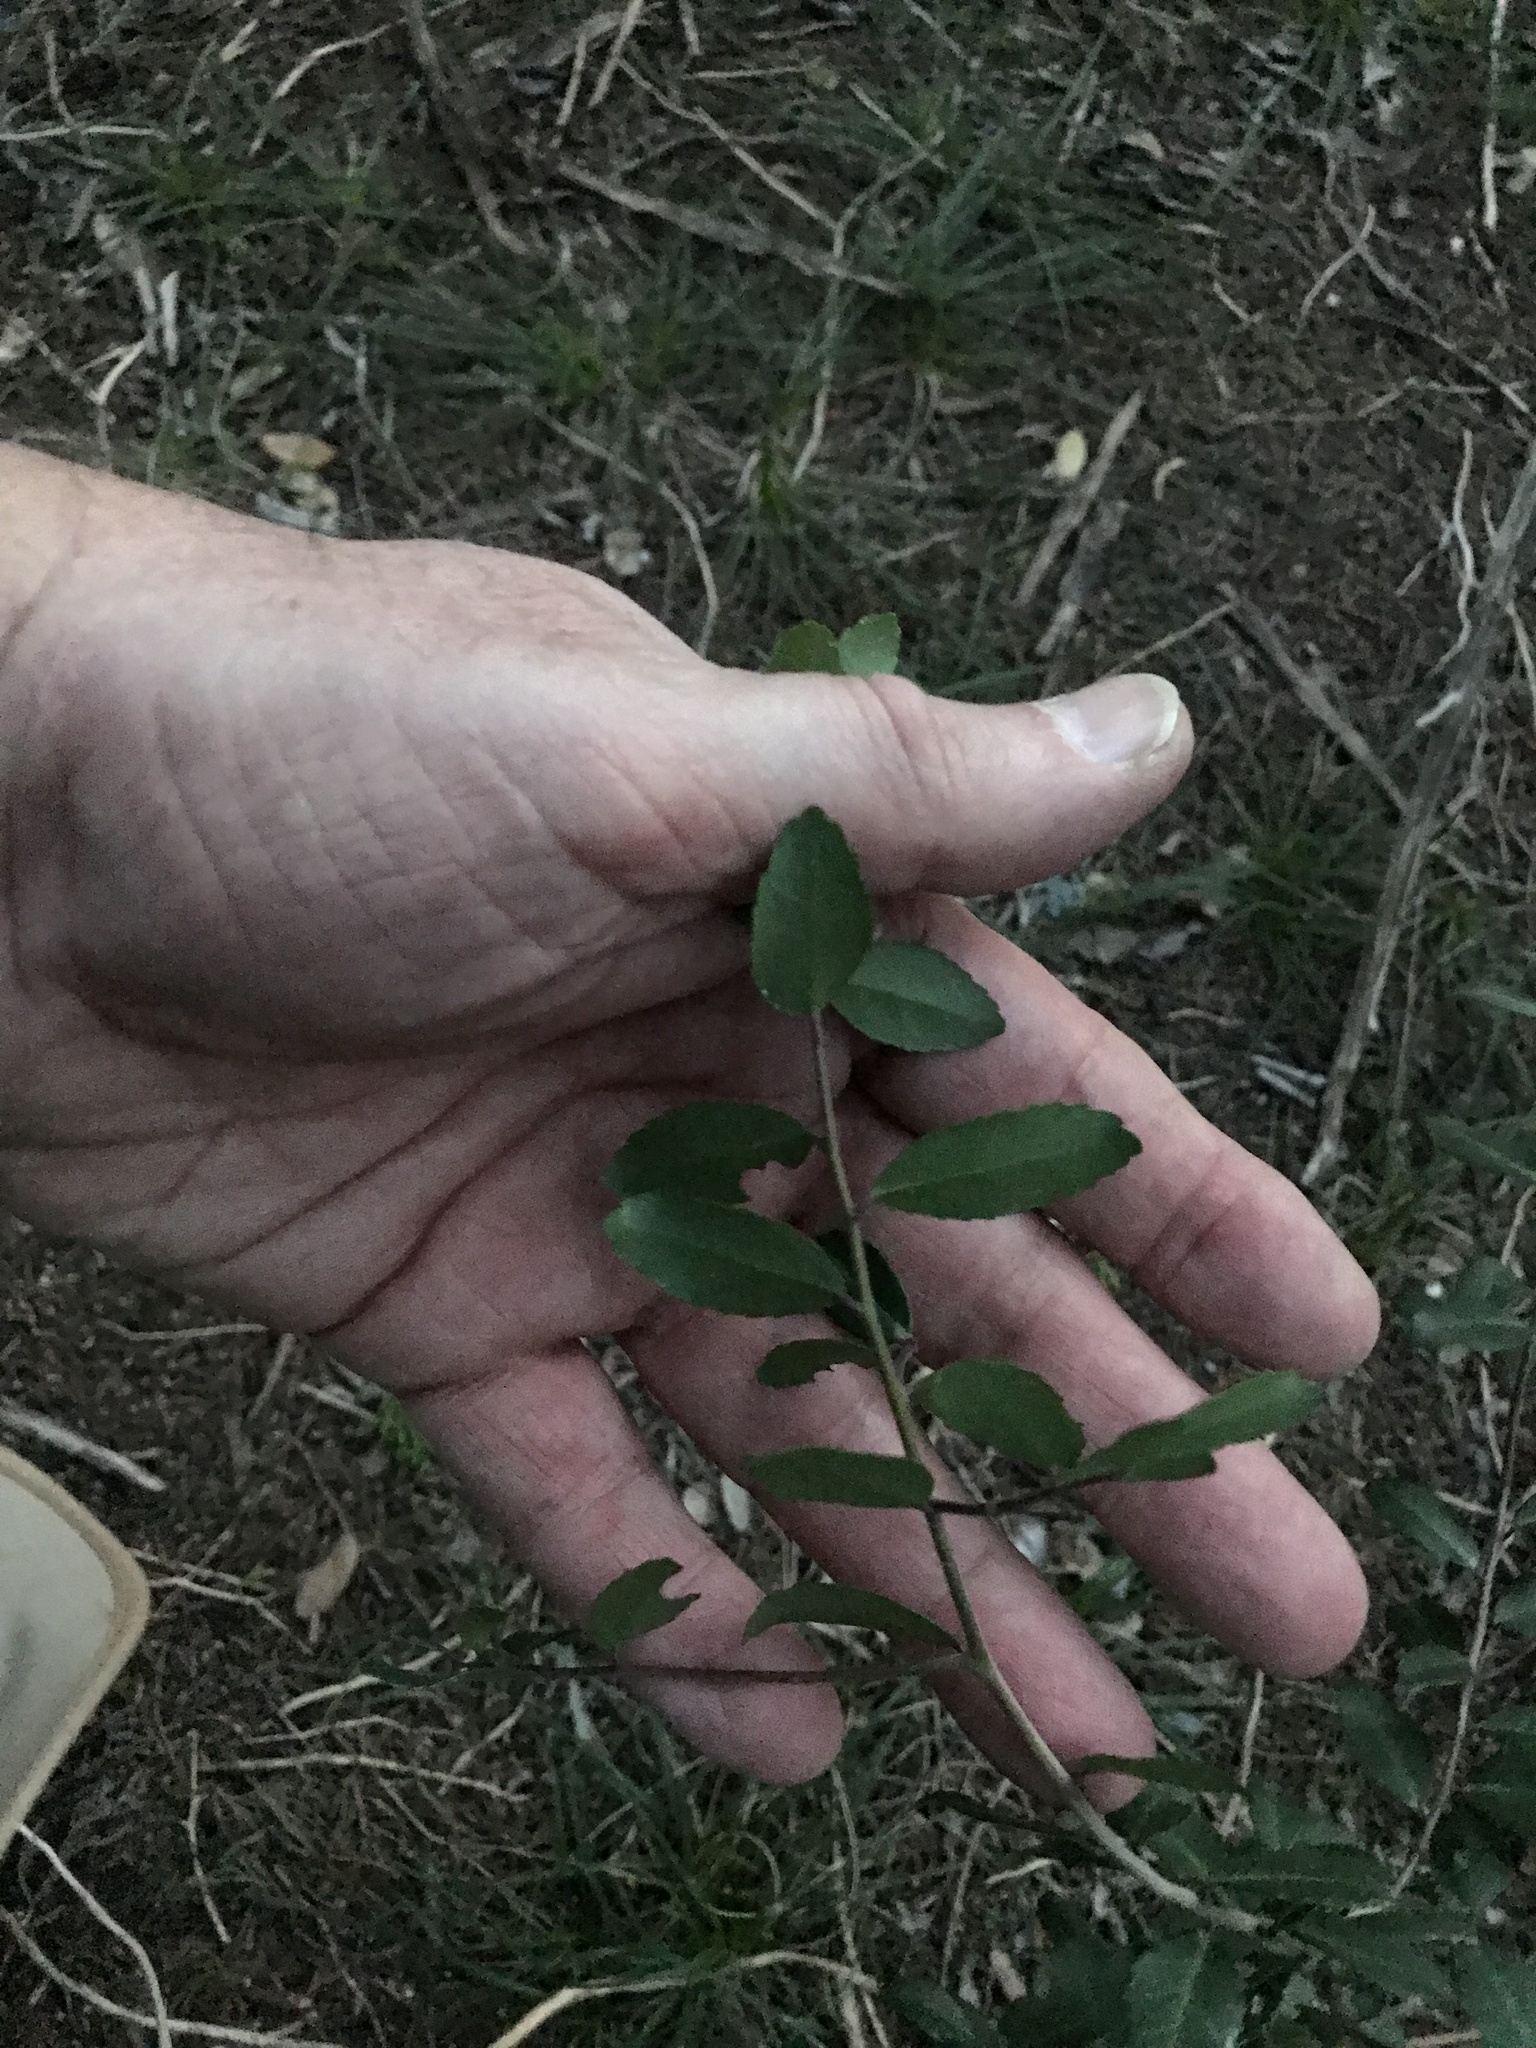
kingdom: Plantae
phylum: Tracheophyta
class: Magnoliopsida
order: Aquifoliales
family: Aquifoliaceae
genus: Ilex
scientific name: Ilex vomitoria
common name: Yaupon holly
